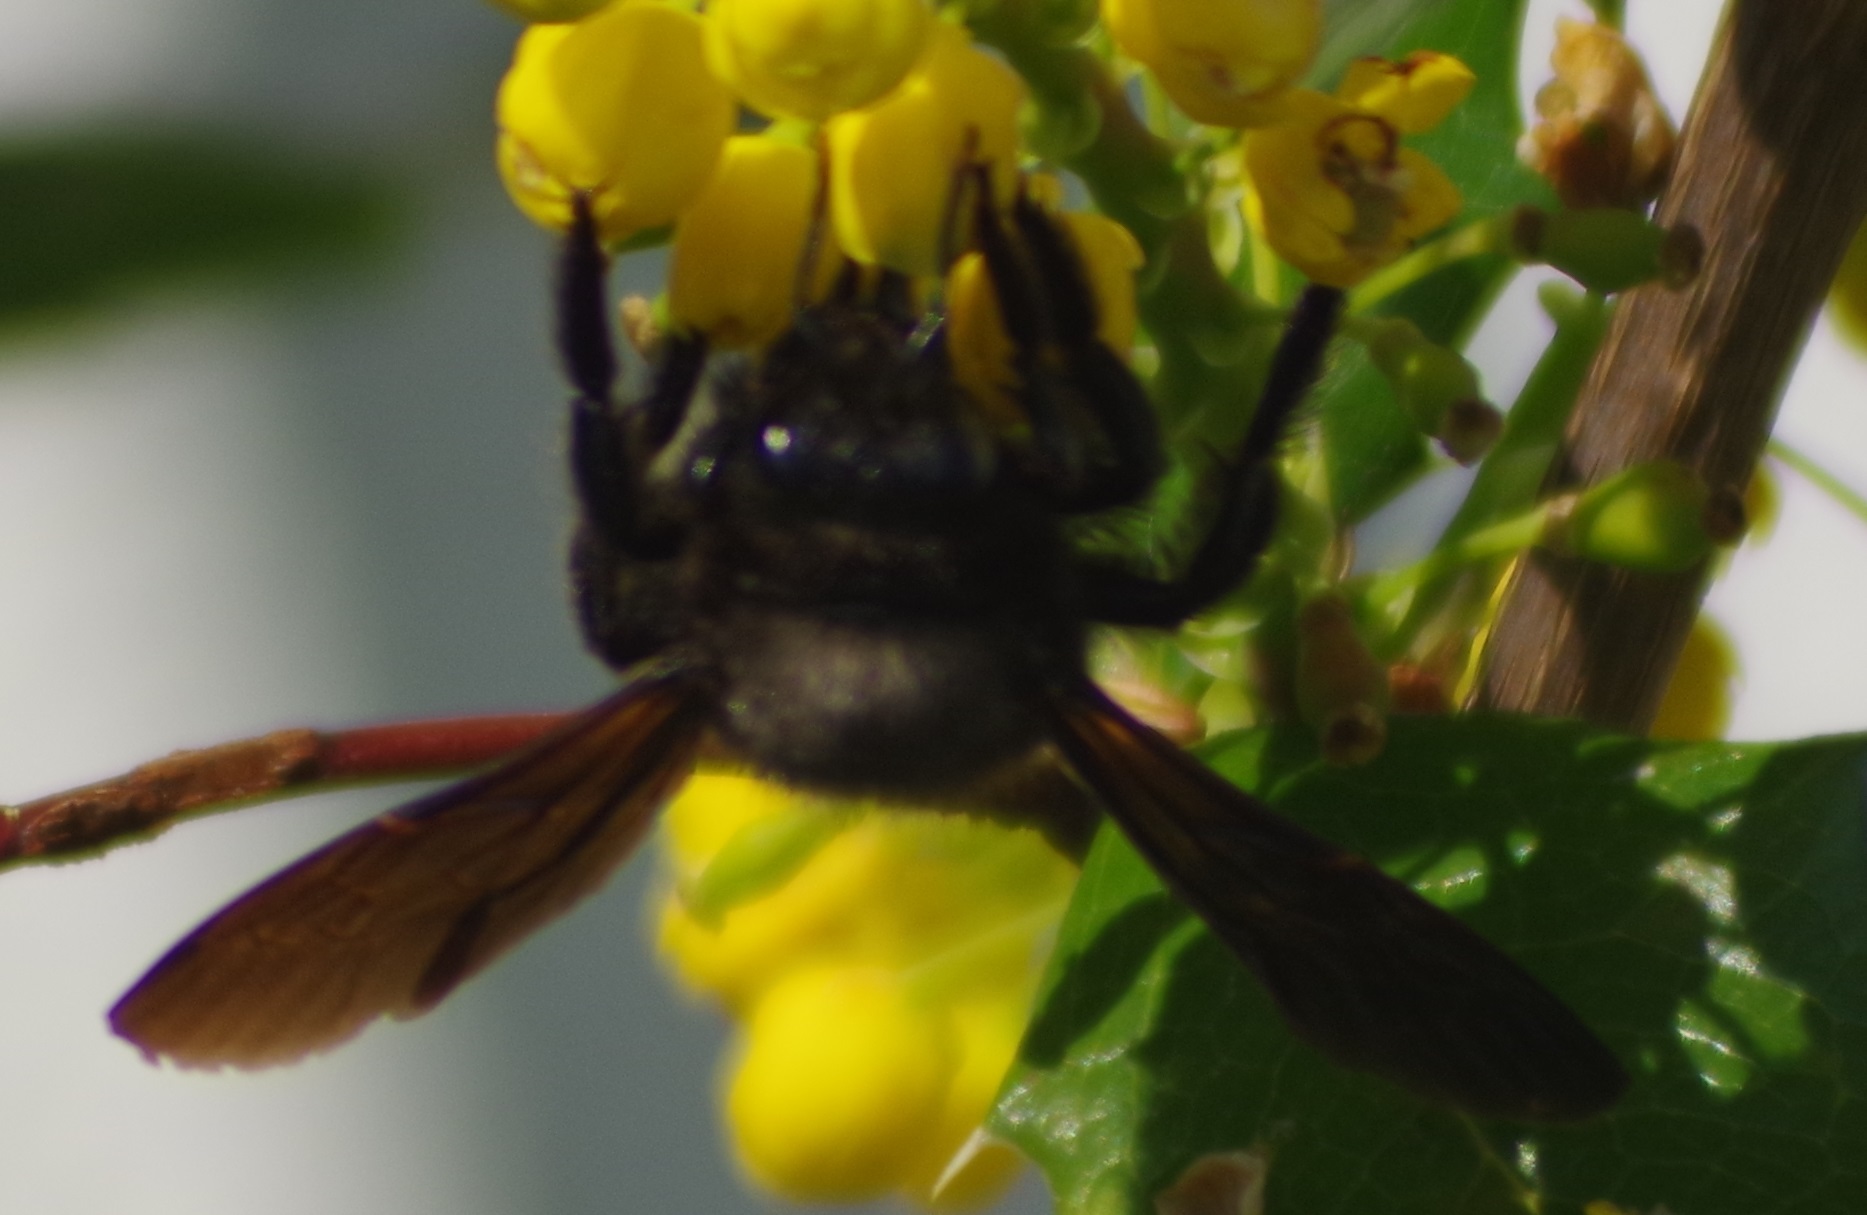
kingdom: Animalia
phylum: Arthropoda
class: Insecta
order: Hymenoptera
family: Apidae
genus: Xylocopa
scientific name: Xylocopa violacea
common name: Violet carpenter bee
